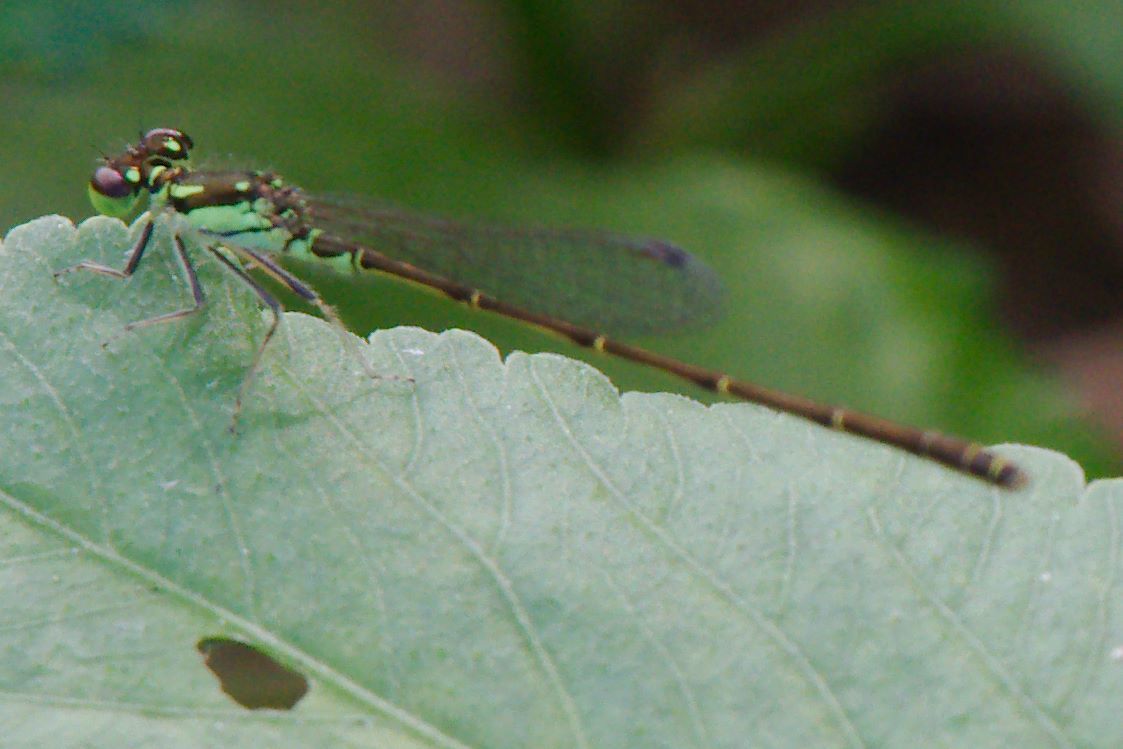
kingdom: Animalia
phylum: Arthropoda
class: Insecta
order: Odonata
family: Coenagrionidae
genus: Ischnura
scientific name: Ischnura posita
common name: Fragile forktail
